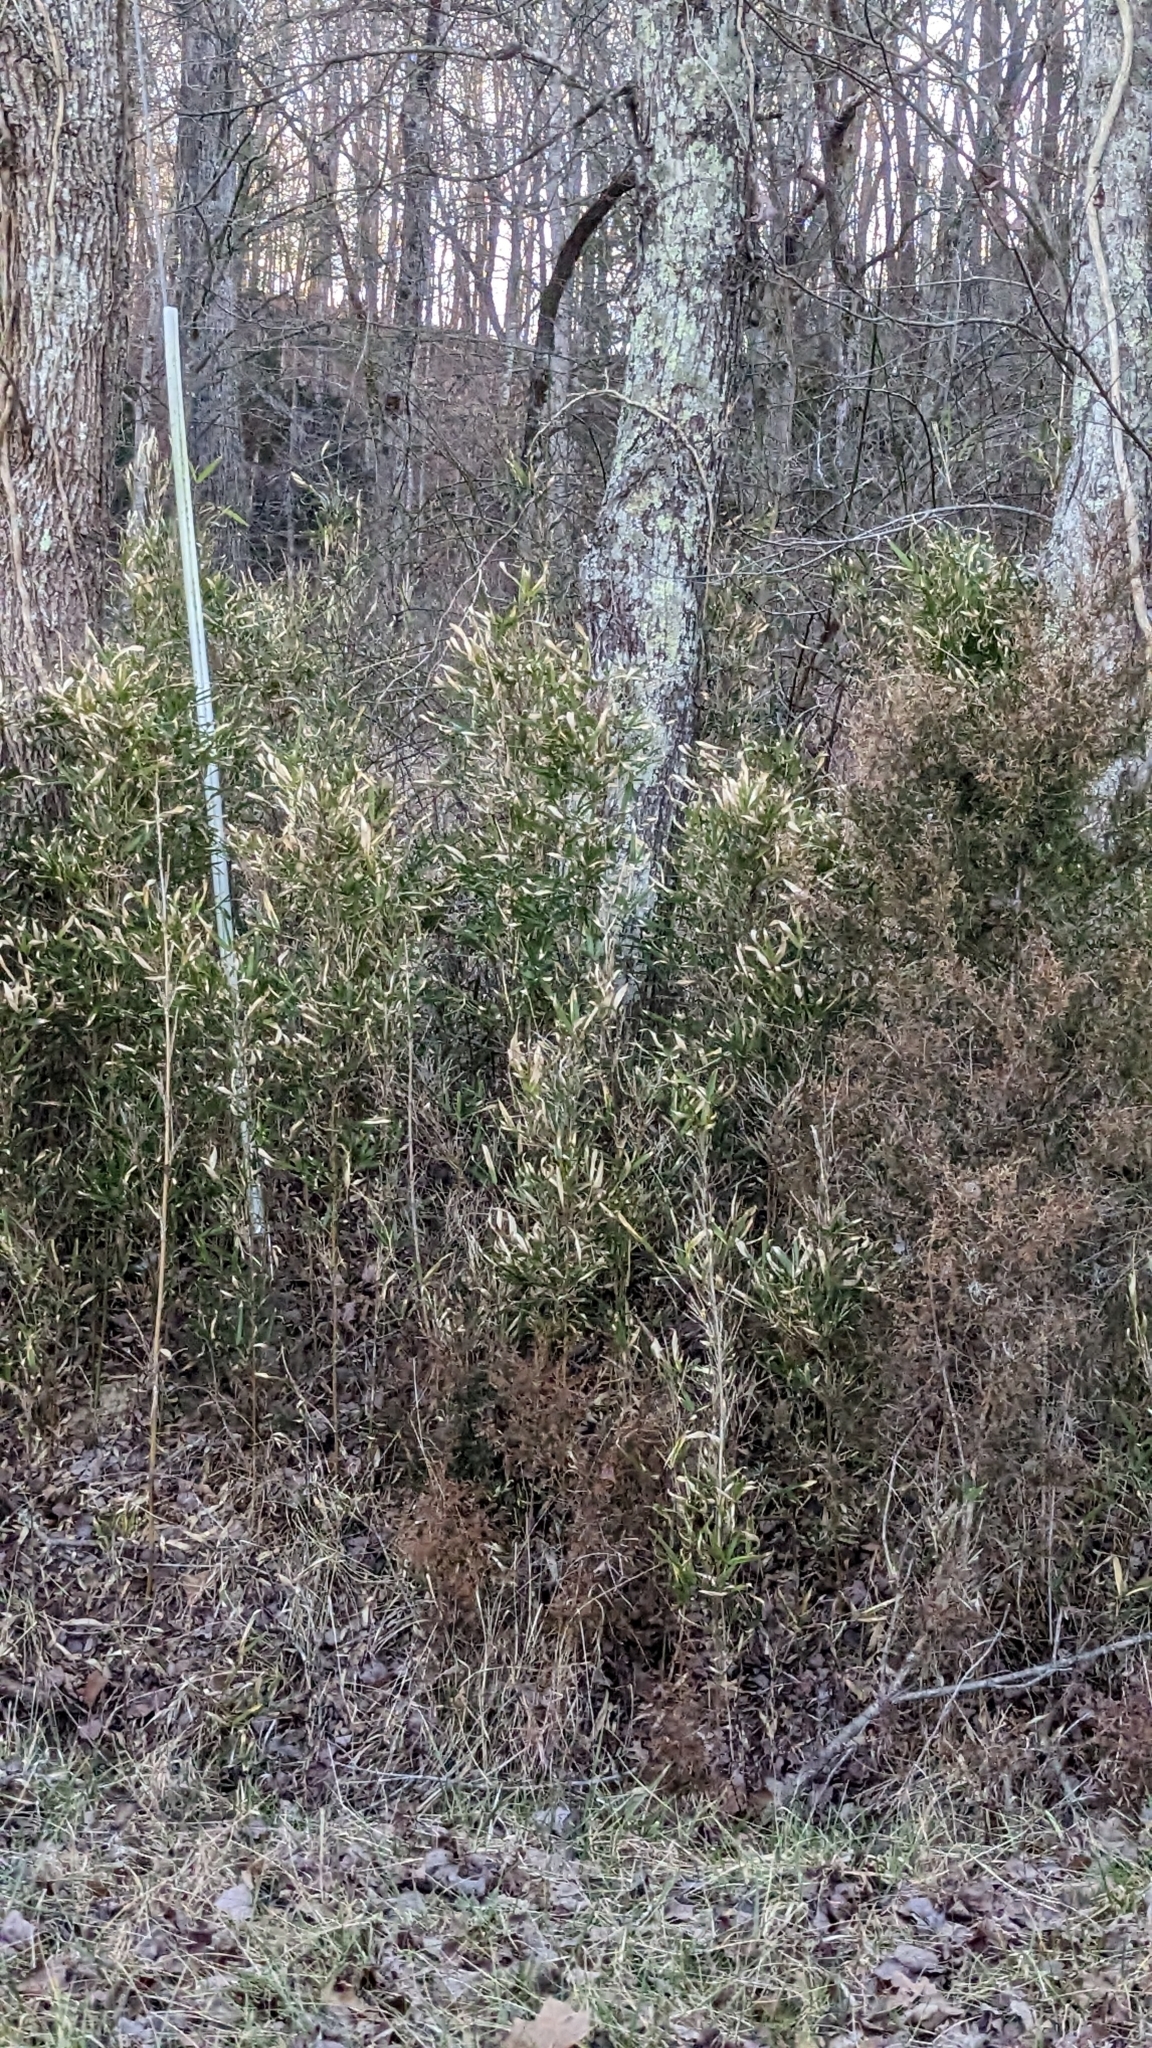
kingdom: Plantae
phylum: Tracheophyta
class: Liliopsida
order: Poales
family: Poaceae
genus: Arundinaria
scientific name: Arundinaria gigantea
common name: Giant cane
